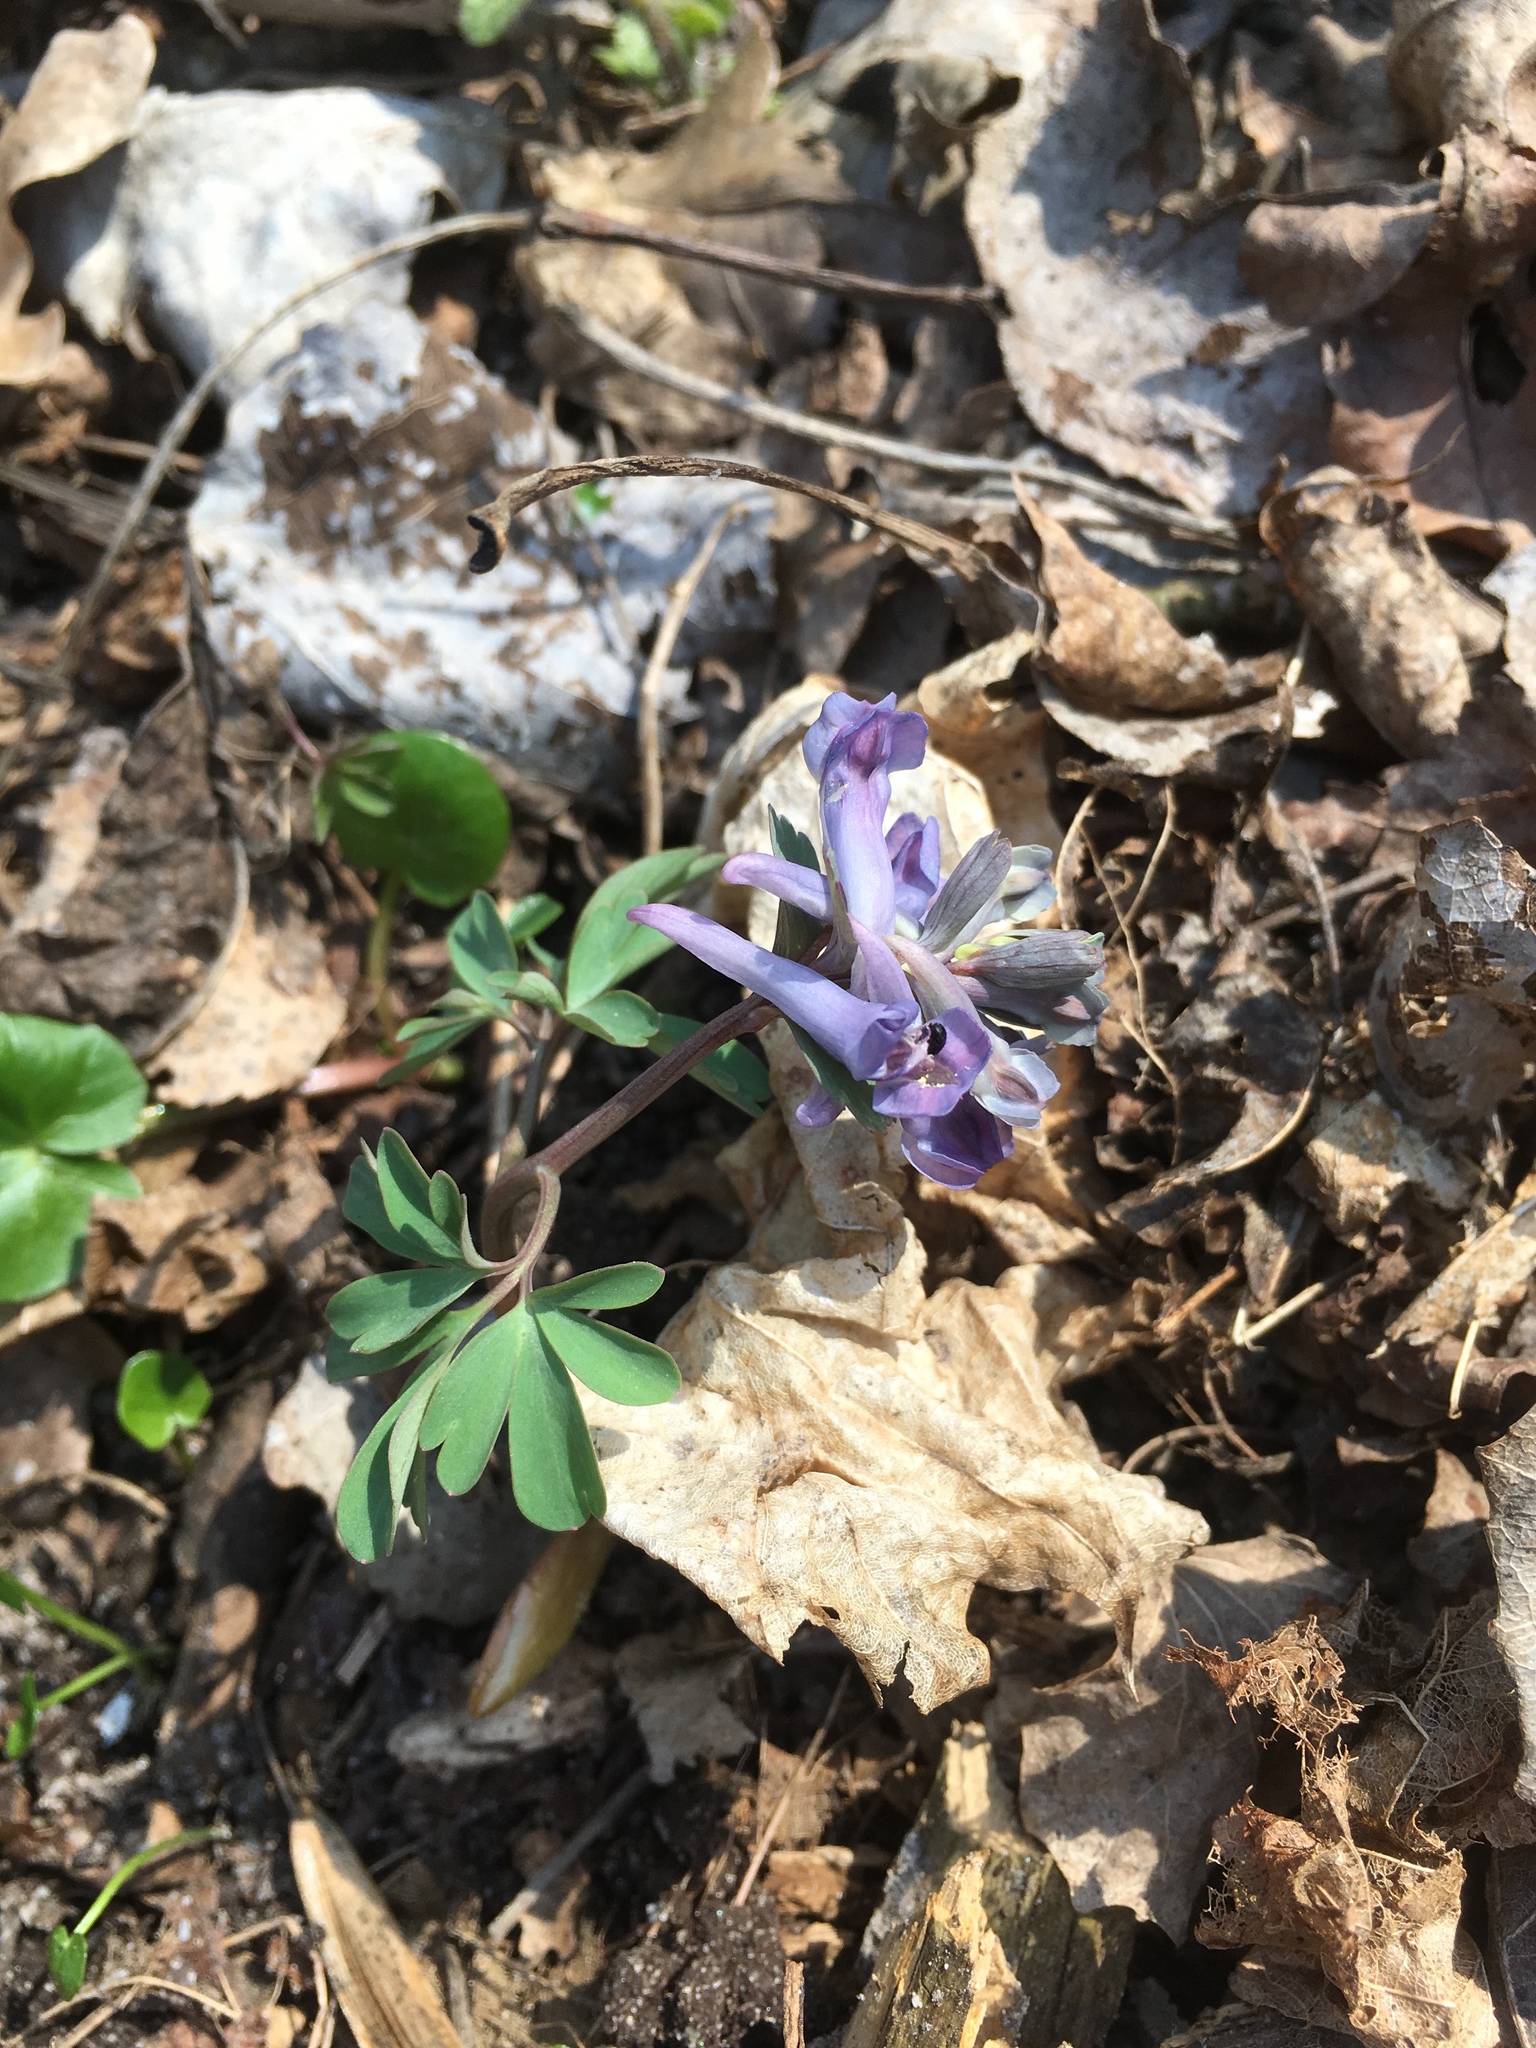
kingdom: Plantae
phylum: Tracheophyta
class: Magnoliopsida
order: Ranunculales
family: Papaveraceae
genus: Corydalis
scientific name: Corydalis solida
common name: Bird-in-a-bush
